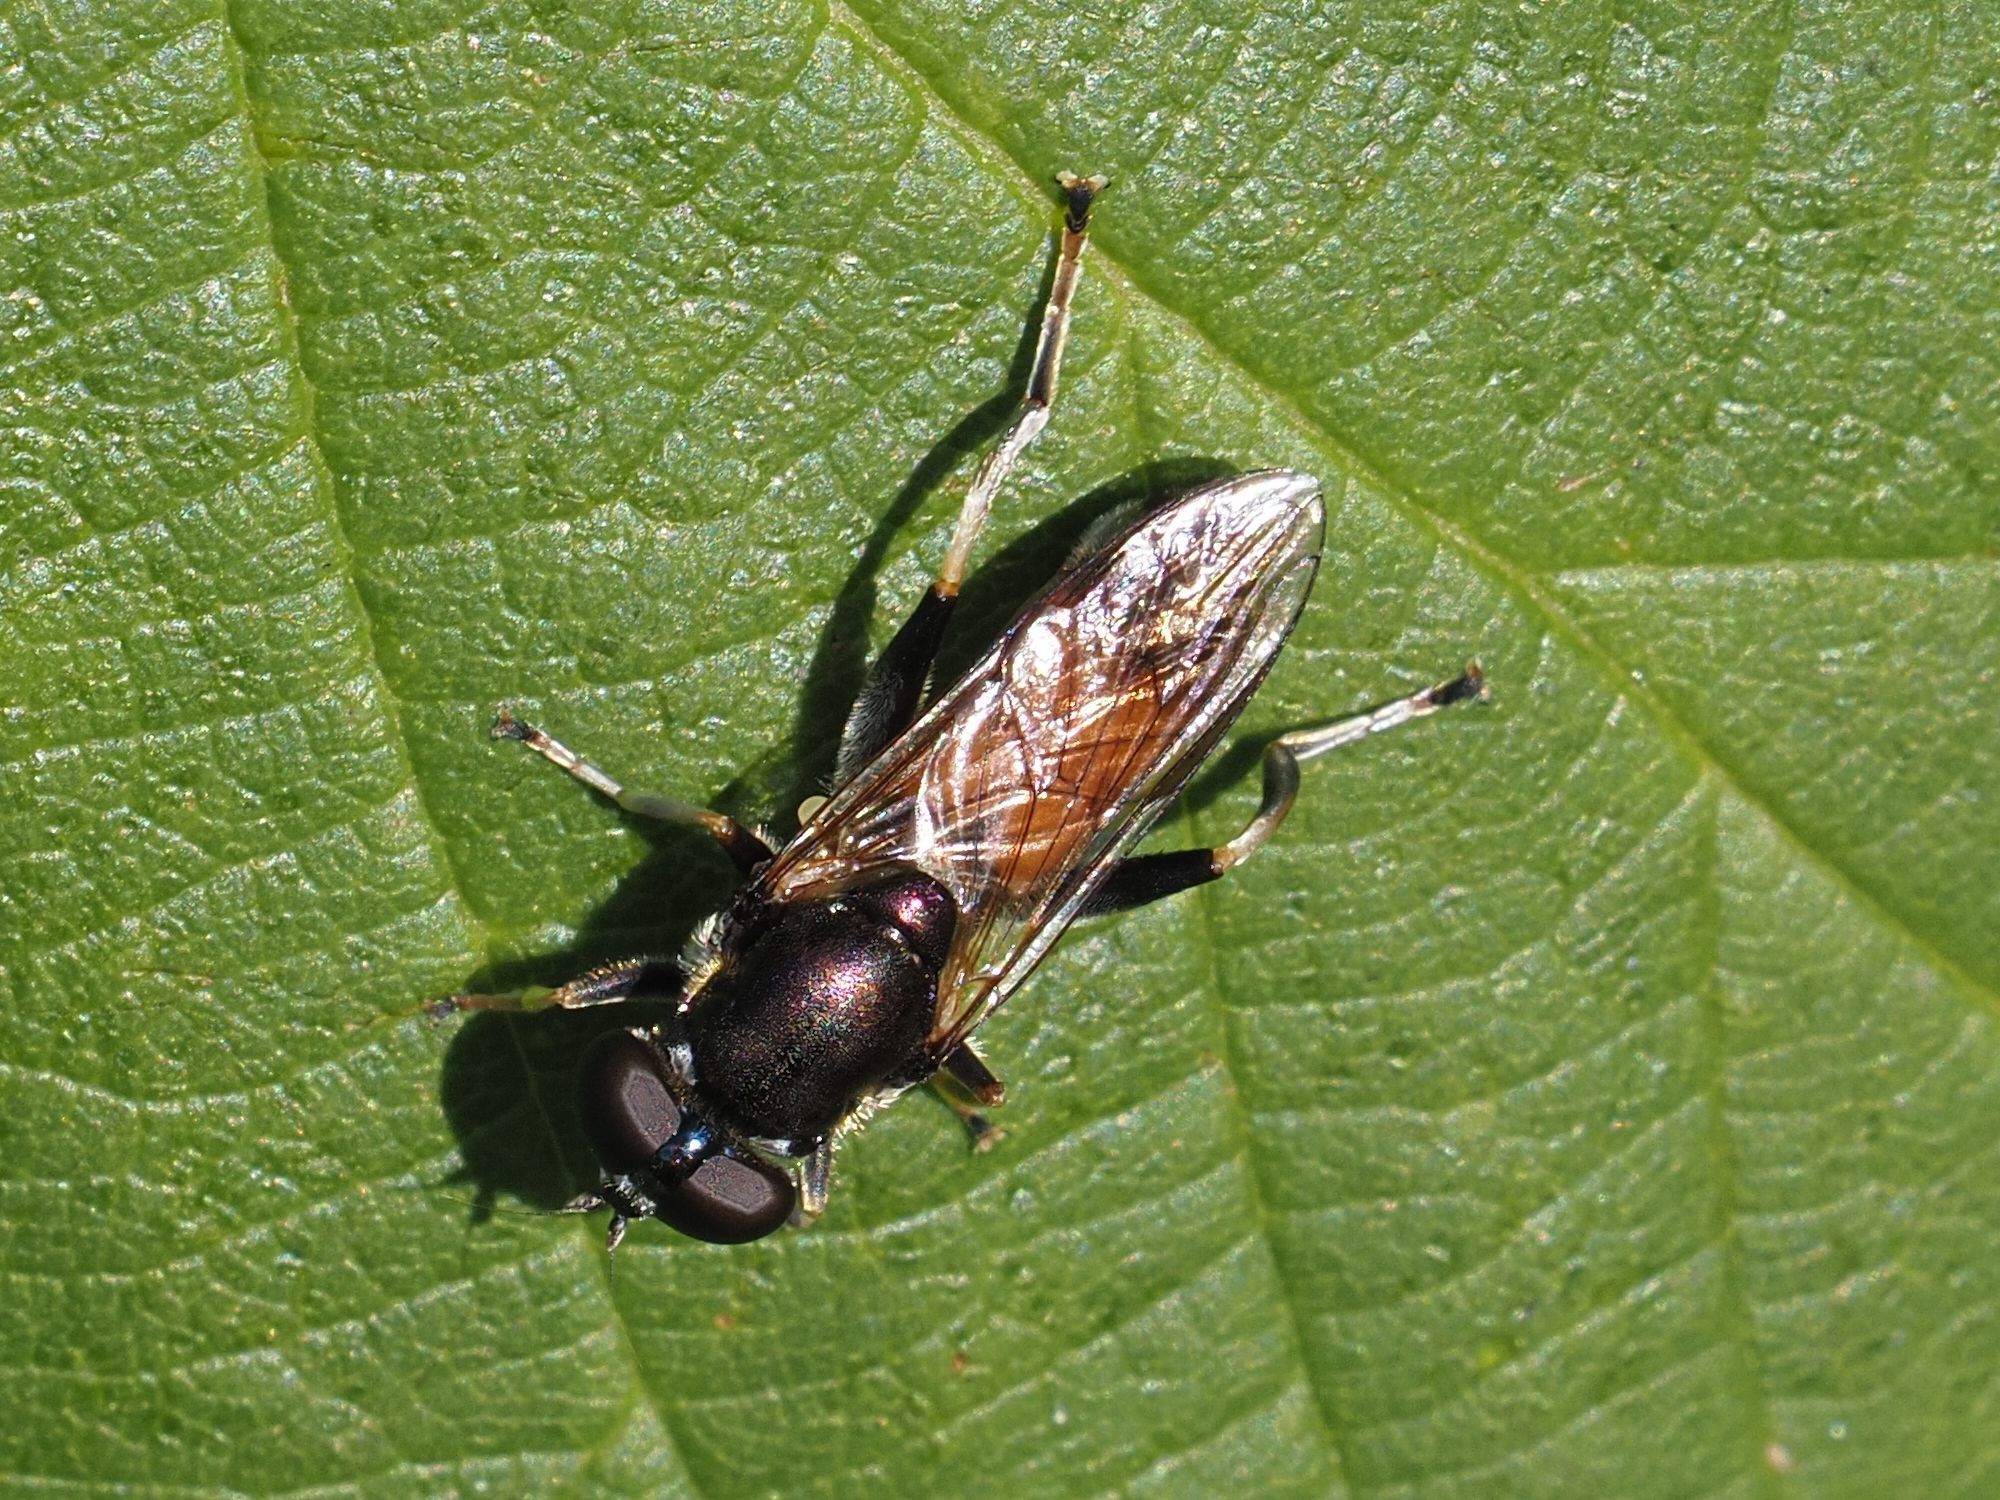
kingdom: Animalia
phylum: Arthropoda
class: Insecta
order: Diptera
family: Syrphidae
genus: Xylota
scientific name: Xylota segnis
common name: Brown-toed forest fly
